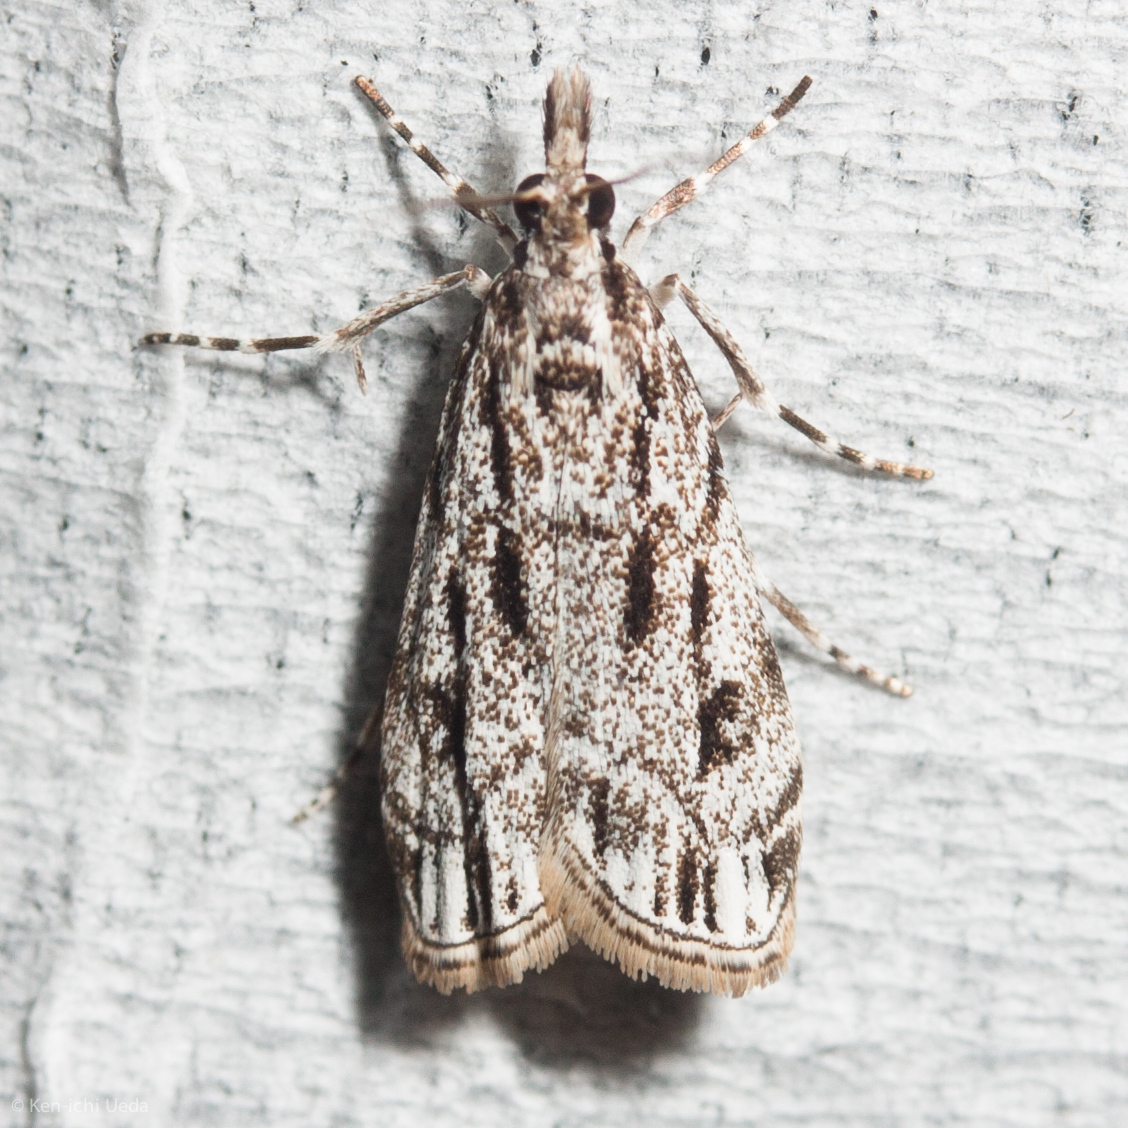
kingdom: Animalia
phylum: Arthropoda
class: Insecta
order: Lepidoptera
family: Crambidae
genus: Eudonia
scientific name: Eudonia strigalis
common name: Striped eudonia moth
